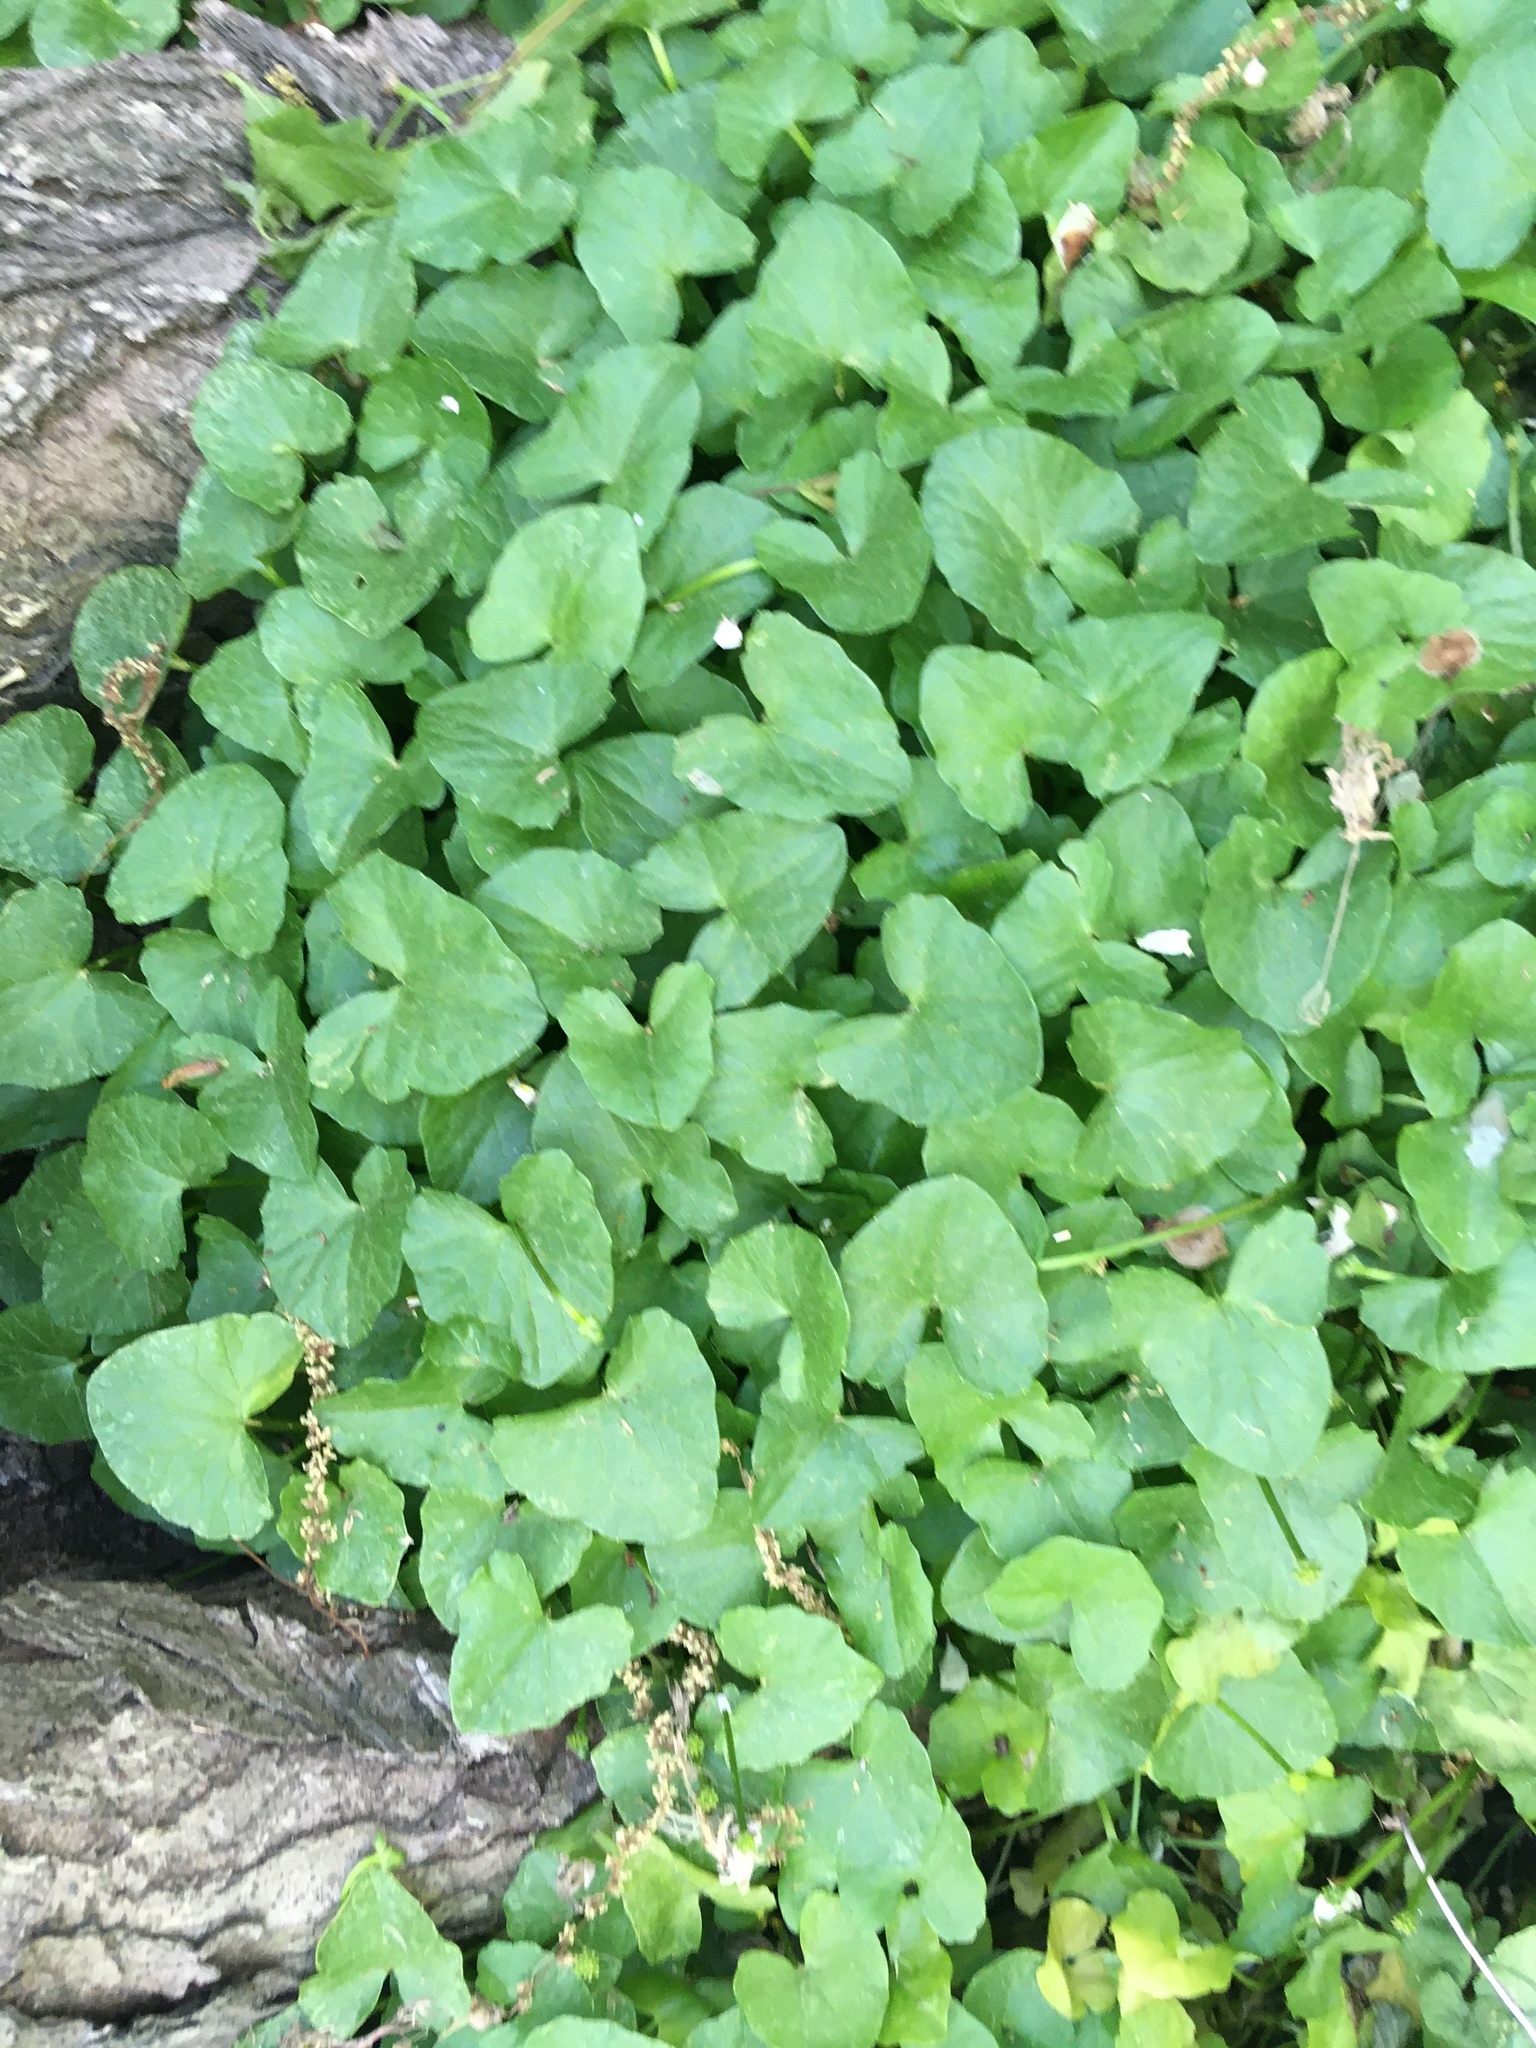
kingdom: Plantae
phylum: Tracheophyta
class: Magnoliopsida
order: Ranunculales
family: Ranunculaceae
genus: Ficaria
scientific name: Ficaria verna
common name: Lesser celandine
